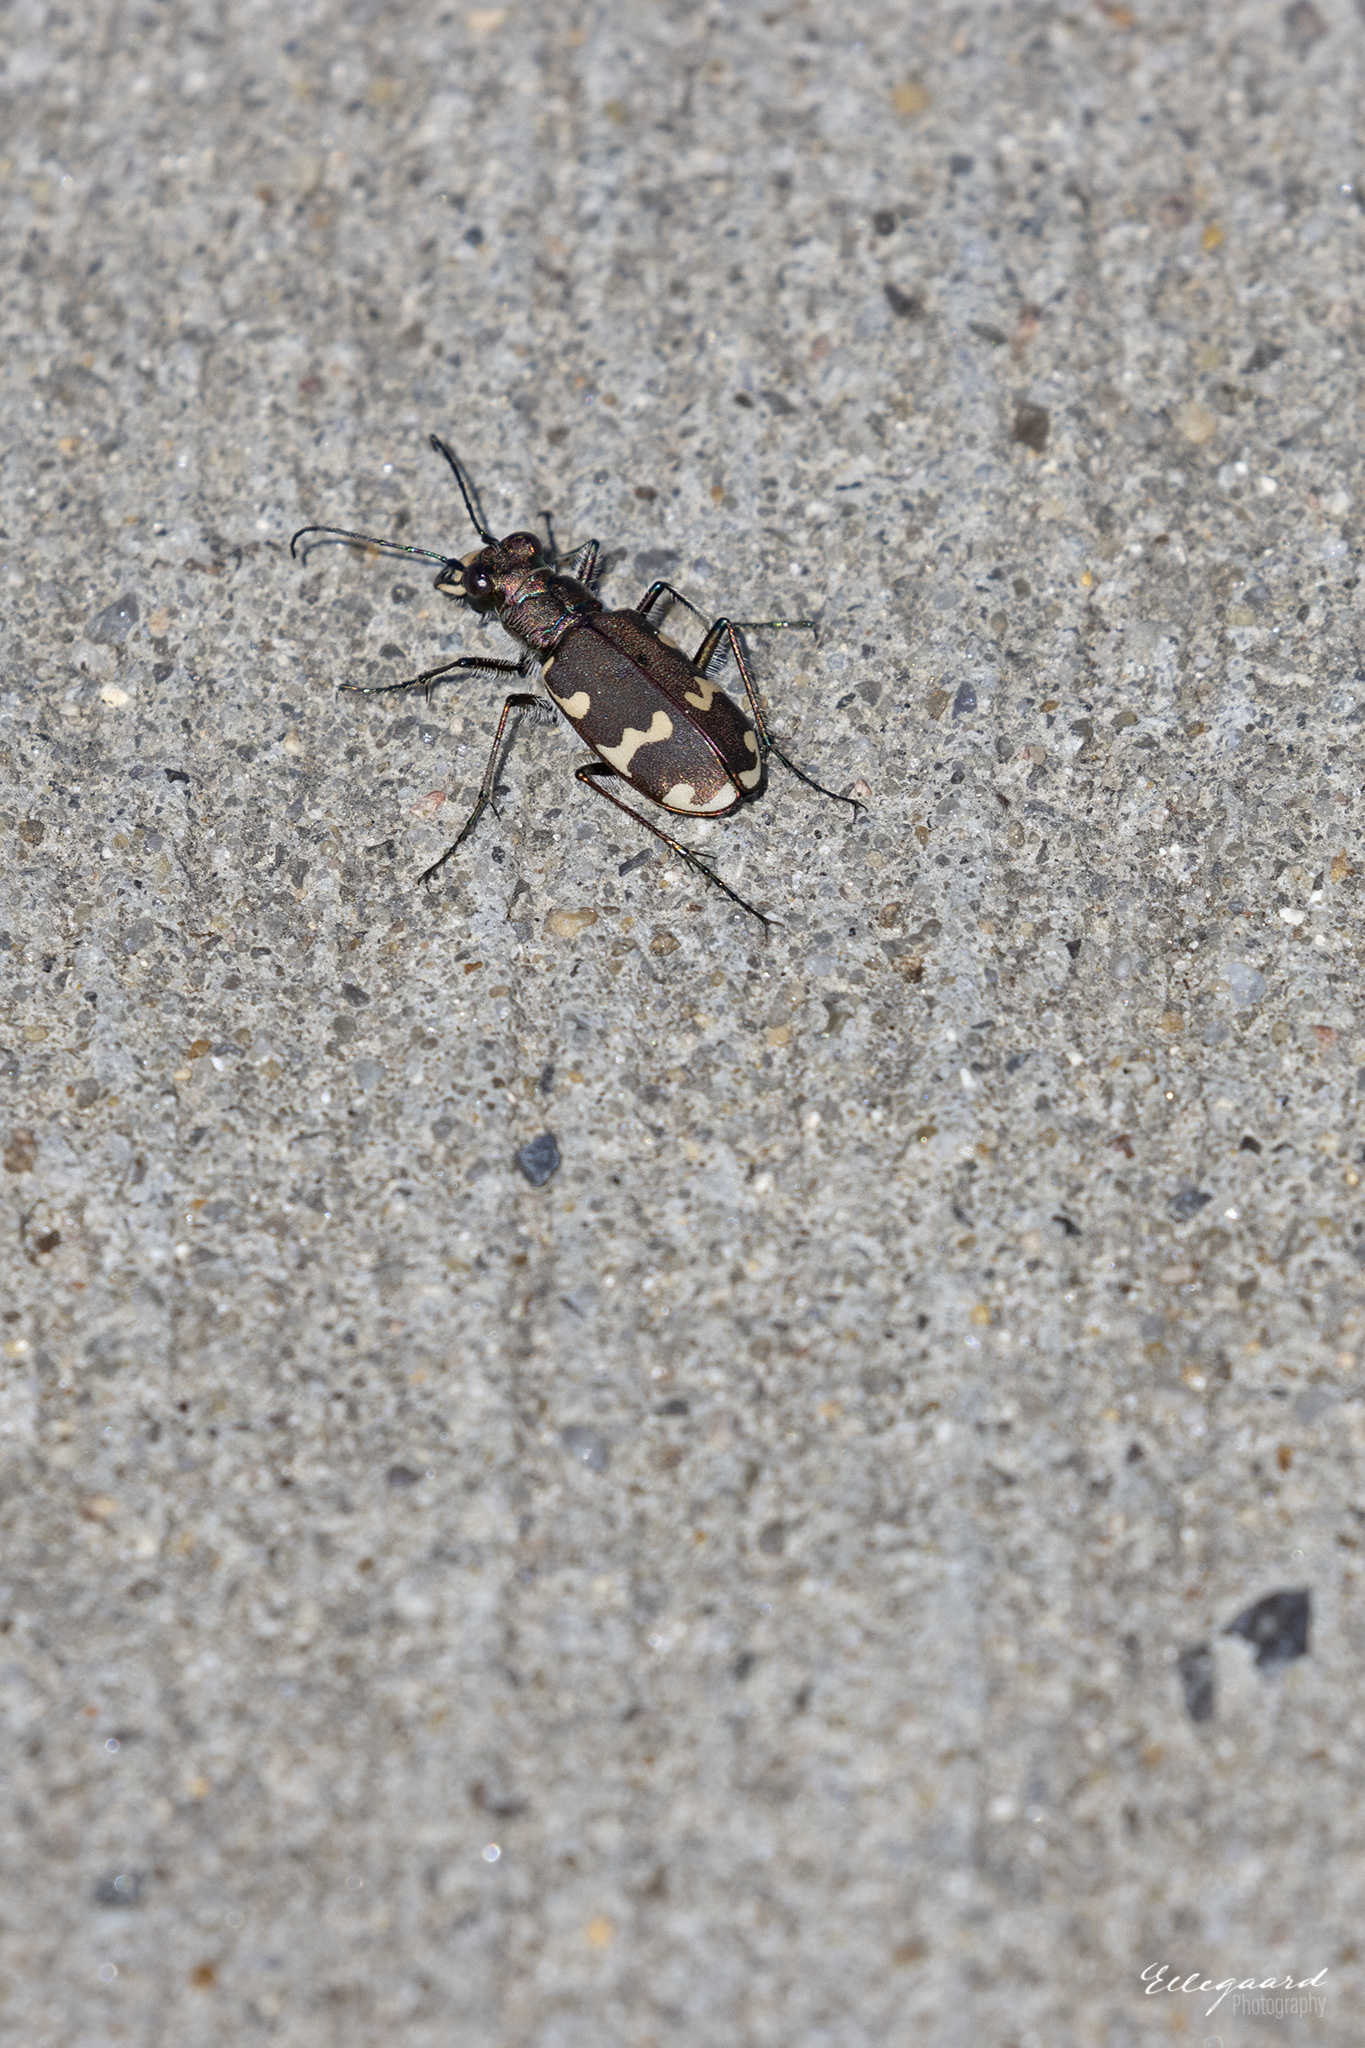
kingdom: Animalia
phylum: Arthropoda
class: Insecta
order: Coleoptera
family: Carabidae
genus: Cicindela
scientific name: Cicindela hybrida
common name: Northern dune tiger beetle
